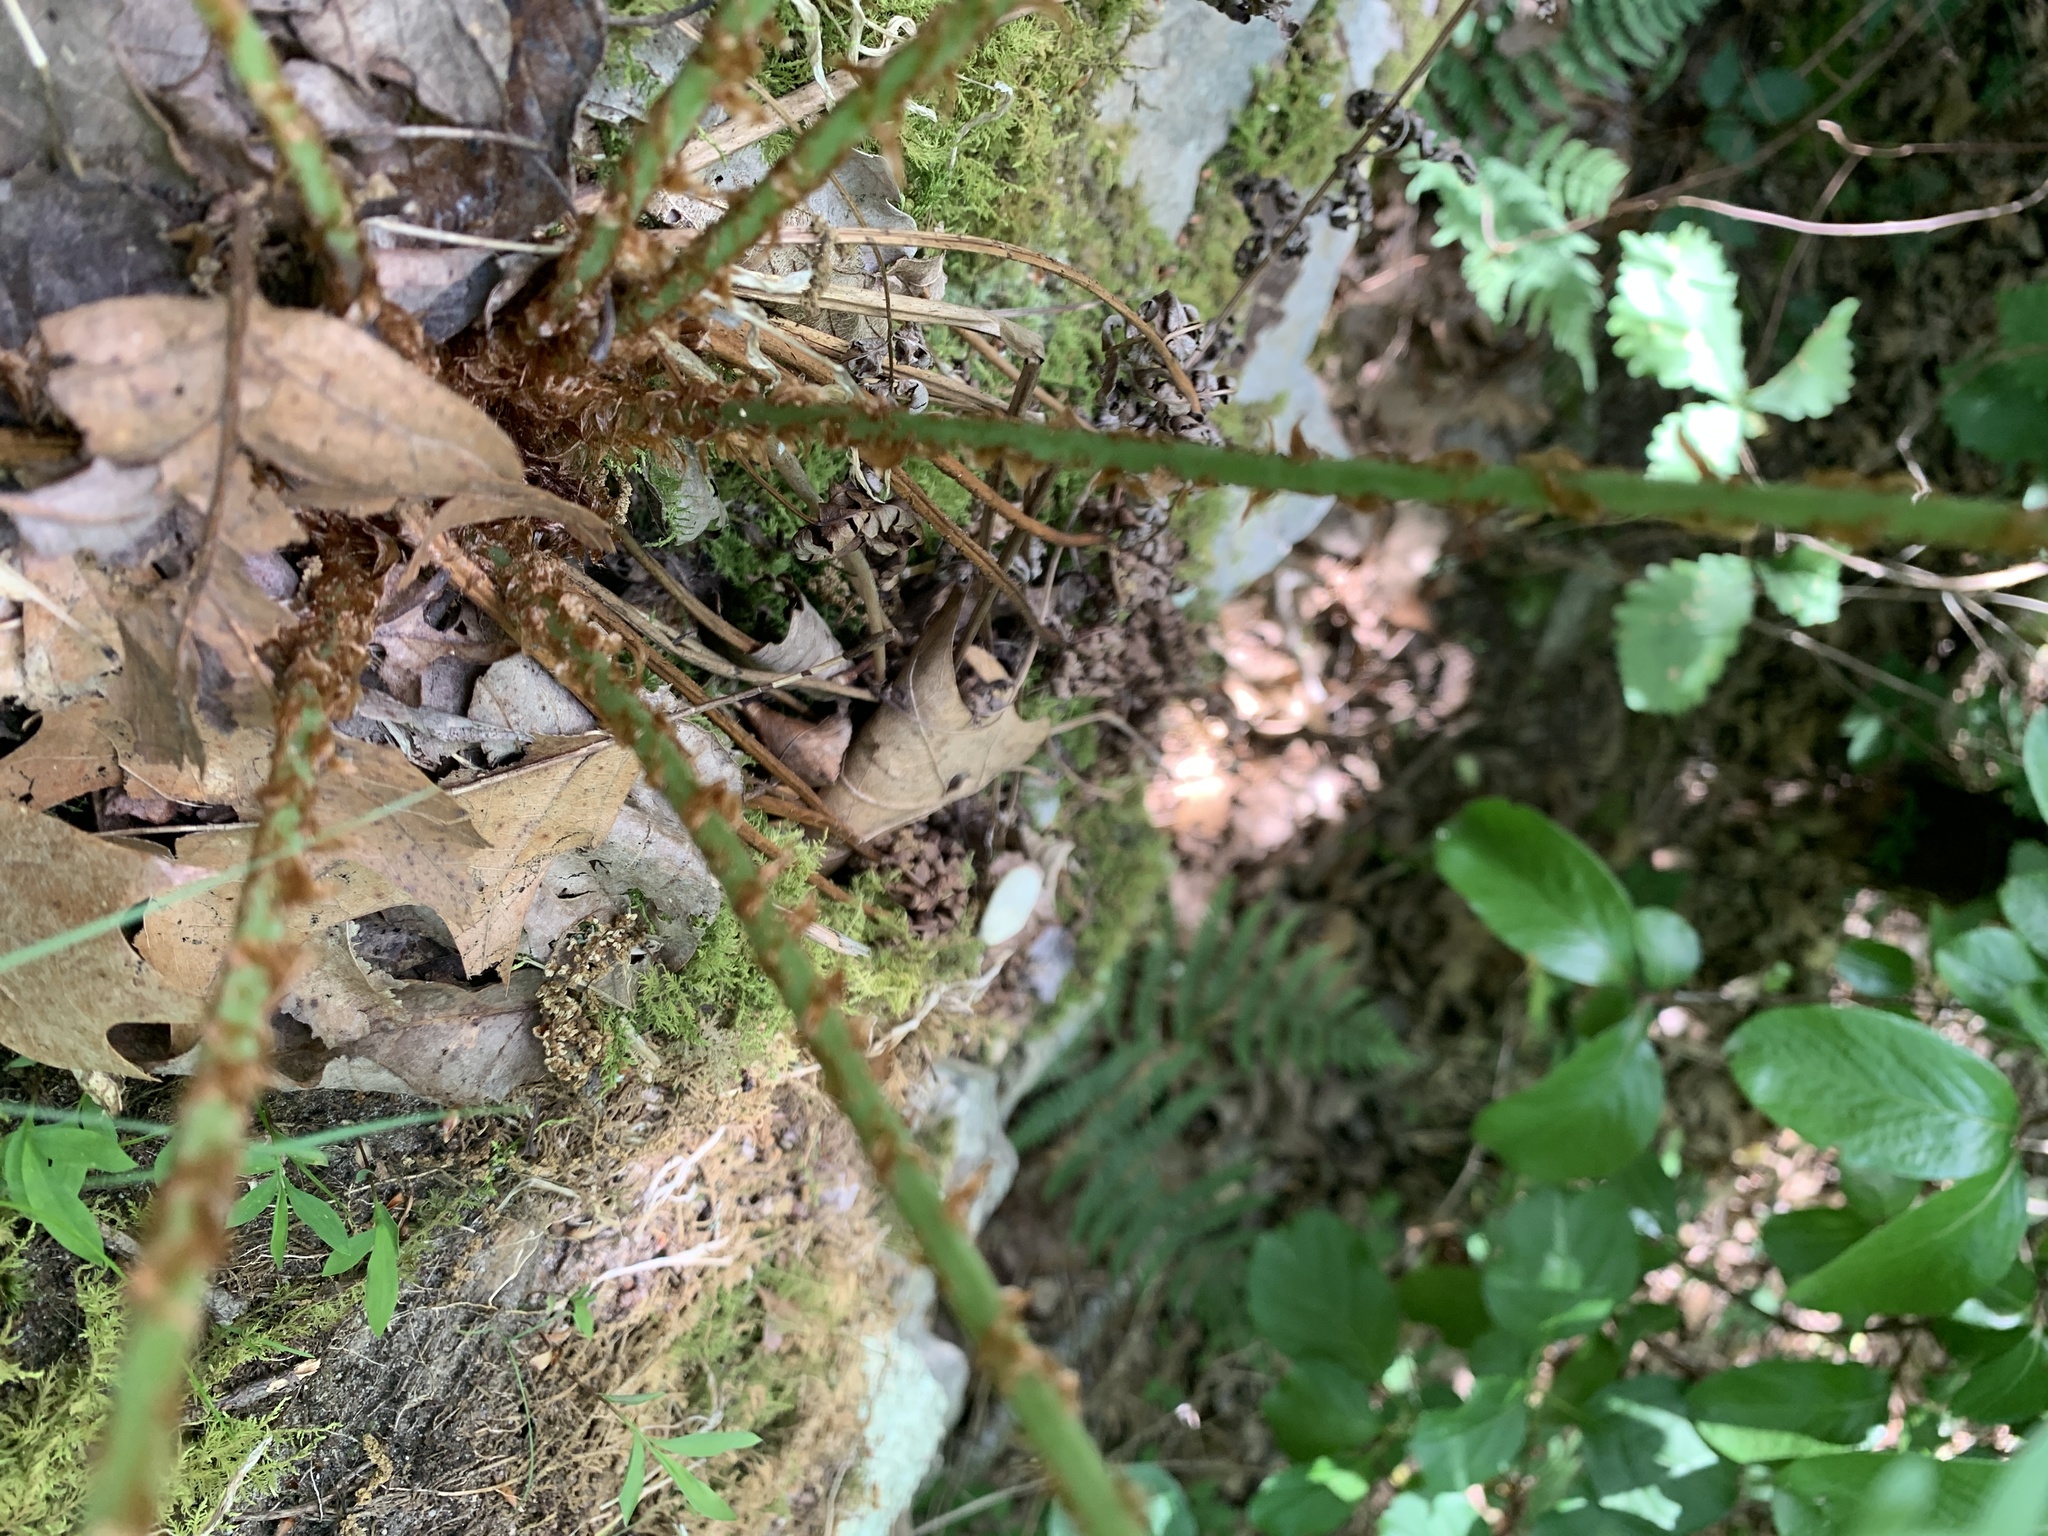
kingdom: Plantae
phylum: Tracheophyta
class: Polypodiopsida
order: Polypodiales
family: Dryopteridaceae
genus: Dryopteris
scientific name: Dryopteris marginalis
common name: Marginal wood fern
